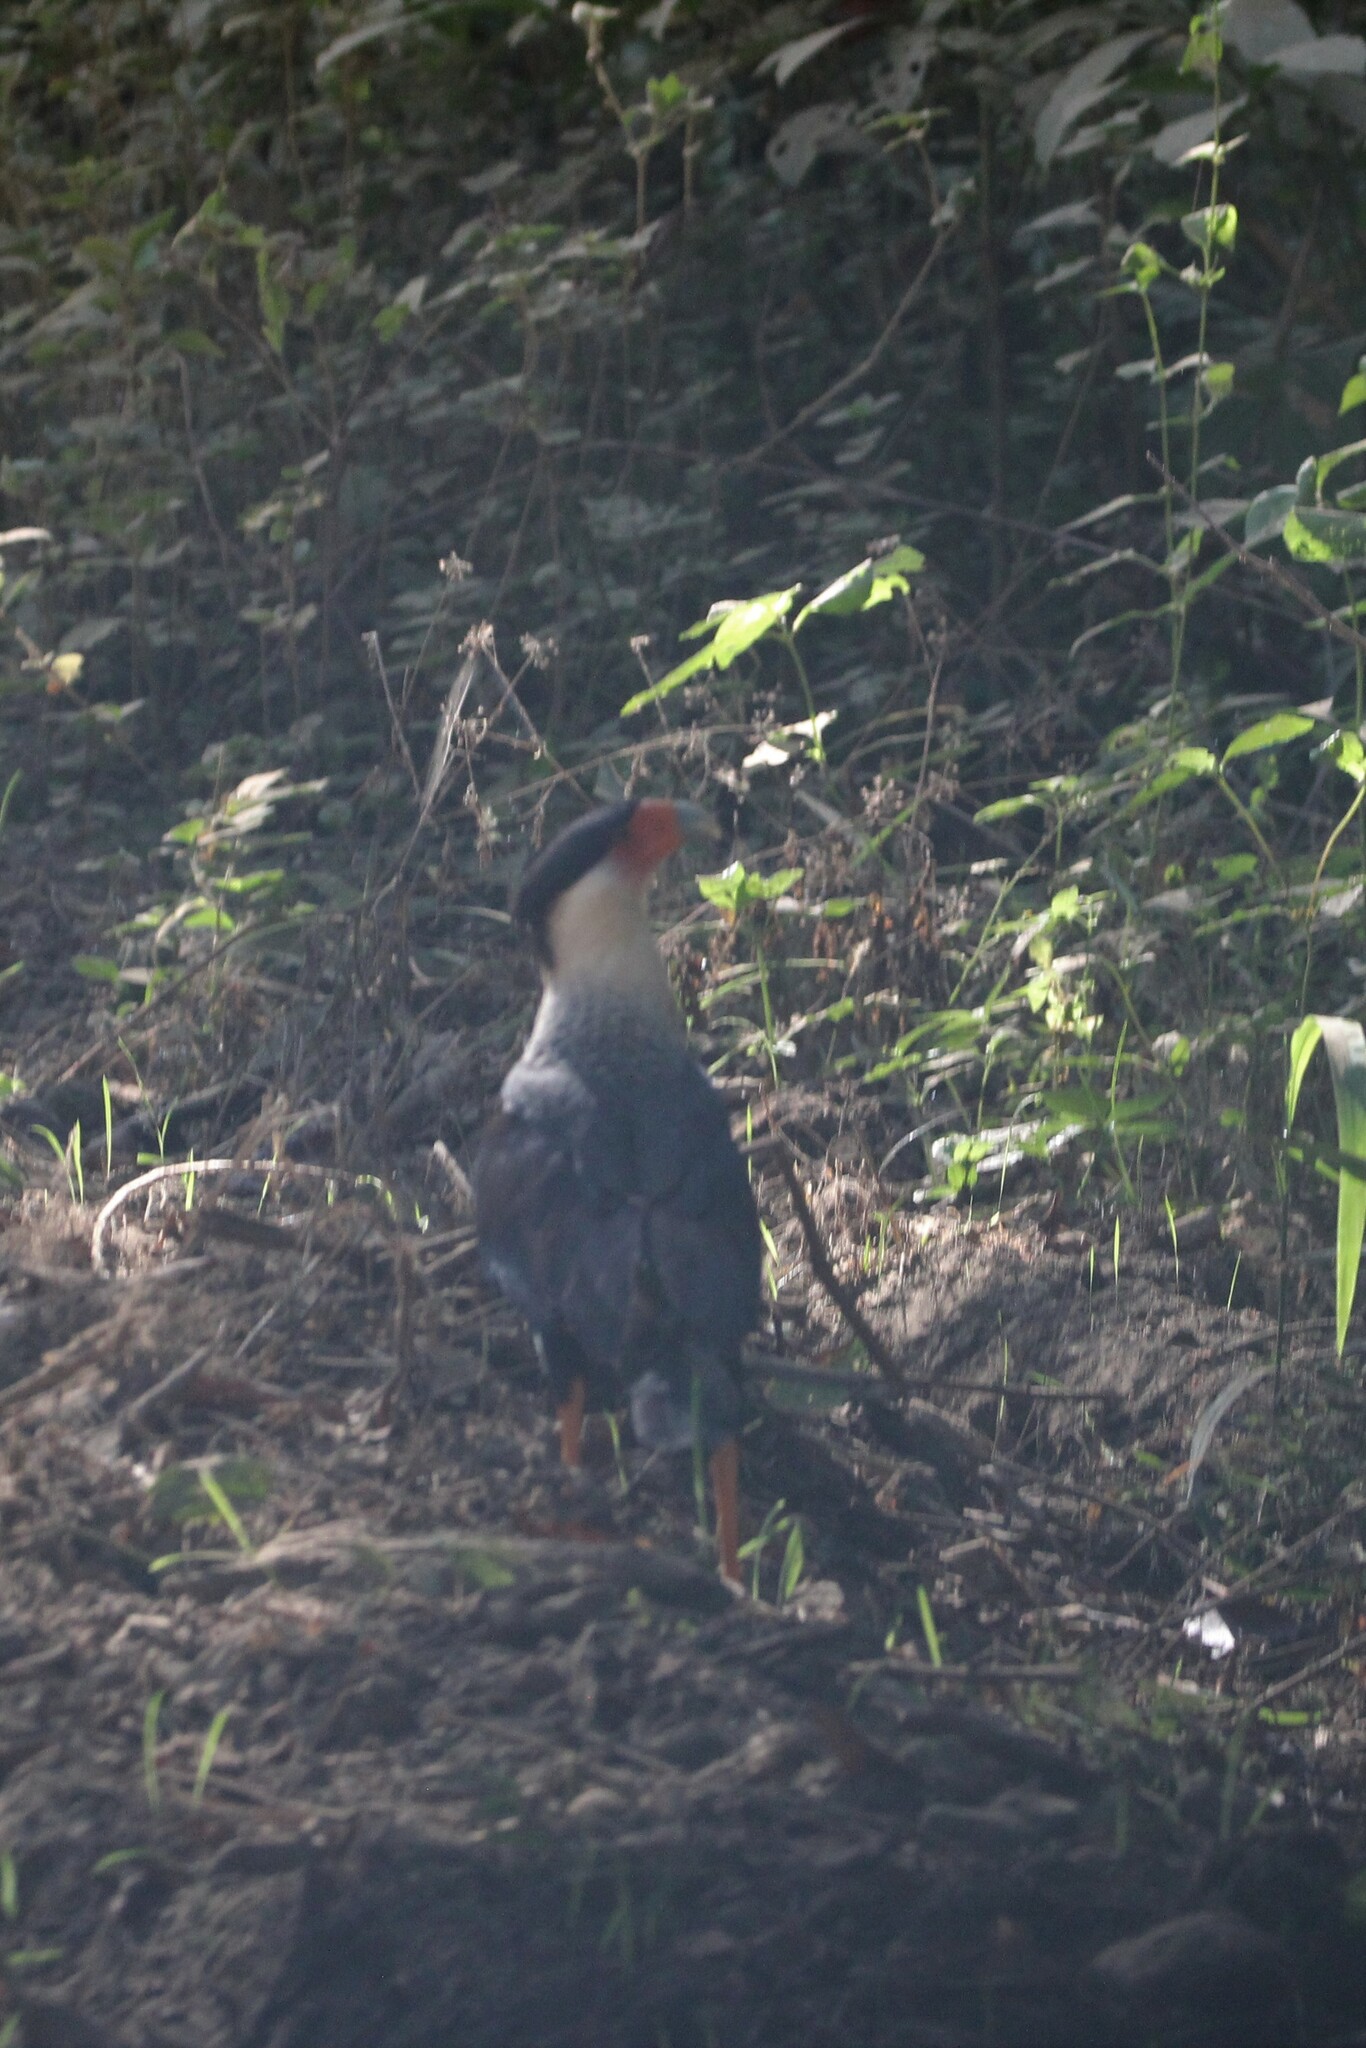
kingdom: Animalia
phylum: Chordata
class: Aves
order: Falconiformes
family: Falconidae
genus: Caracara
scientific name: Caracara plancus
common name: Southern caracara
